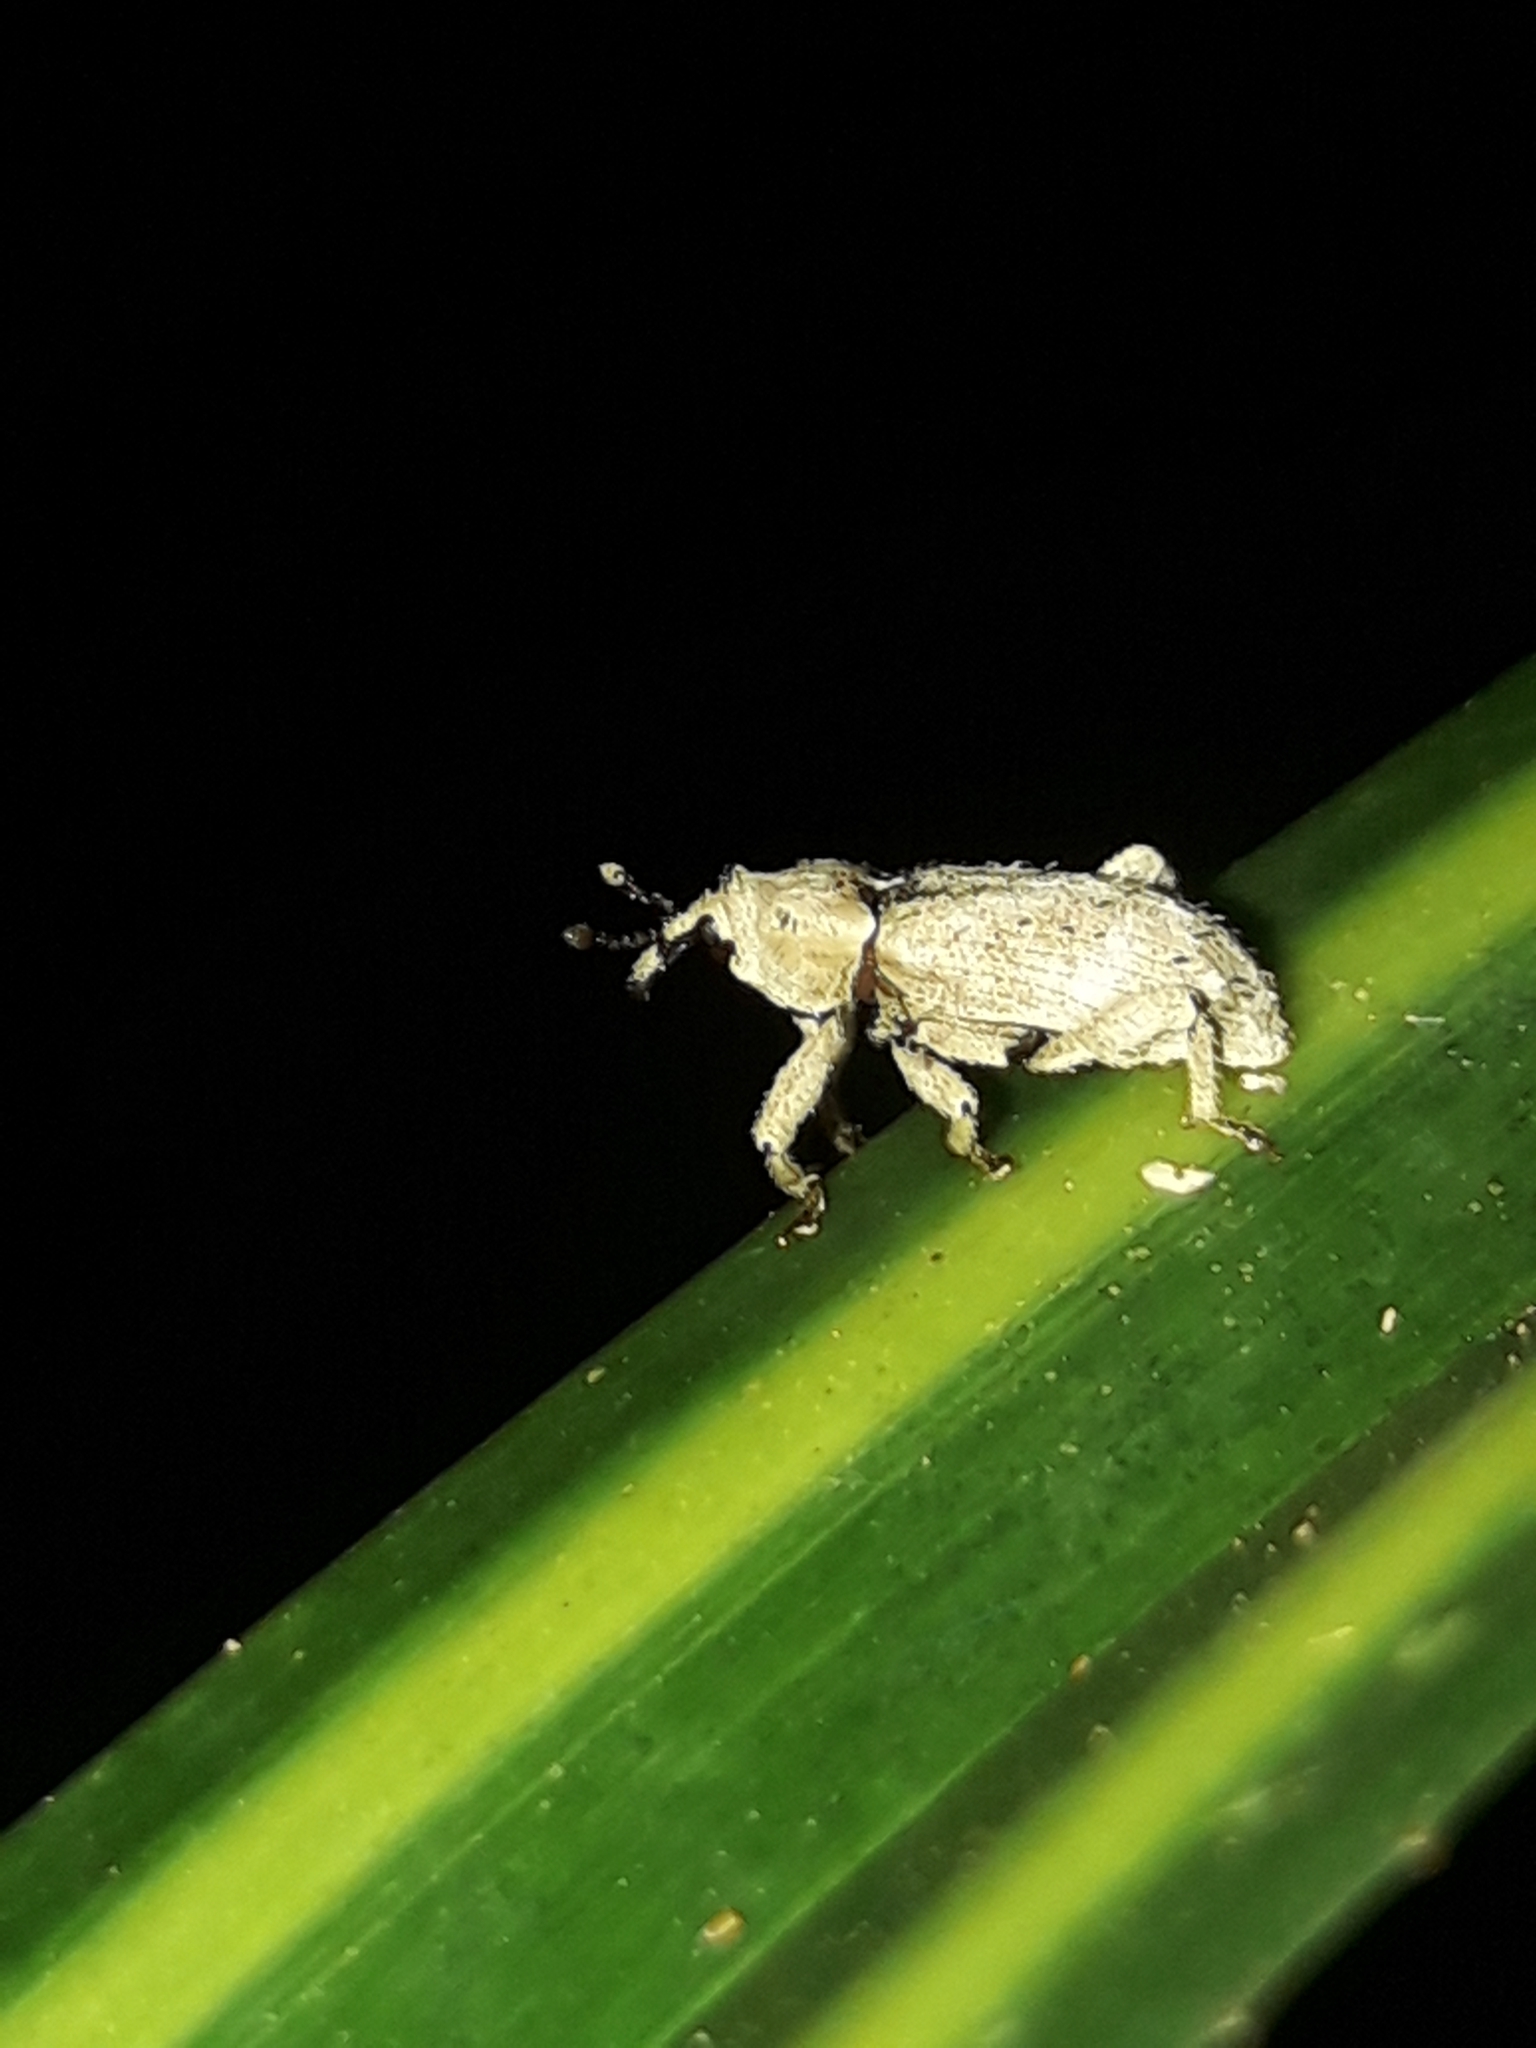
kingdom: Animalia
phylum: Arthropoda
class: Insecta
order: Coleoptera
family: Curculionidae
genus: Mitrastethus
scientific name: Mitrastethus baridioides
